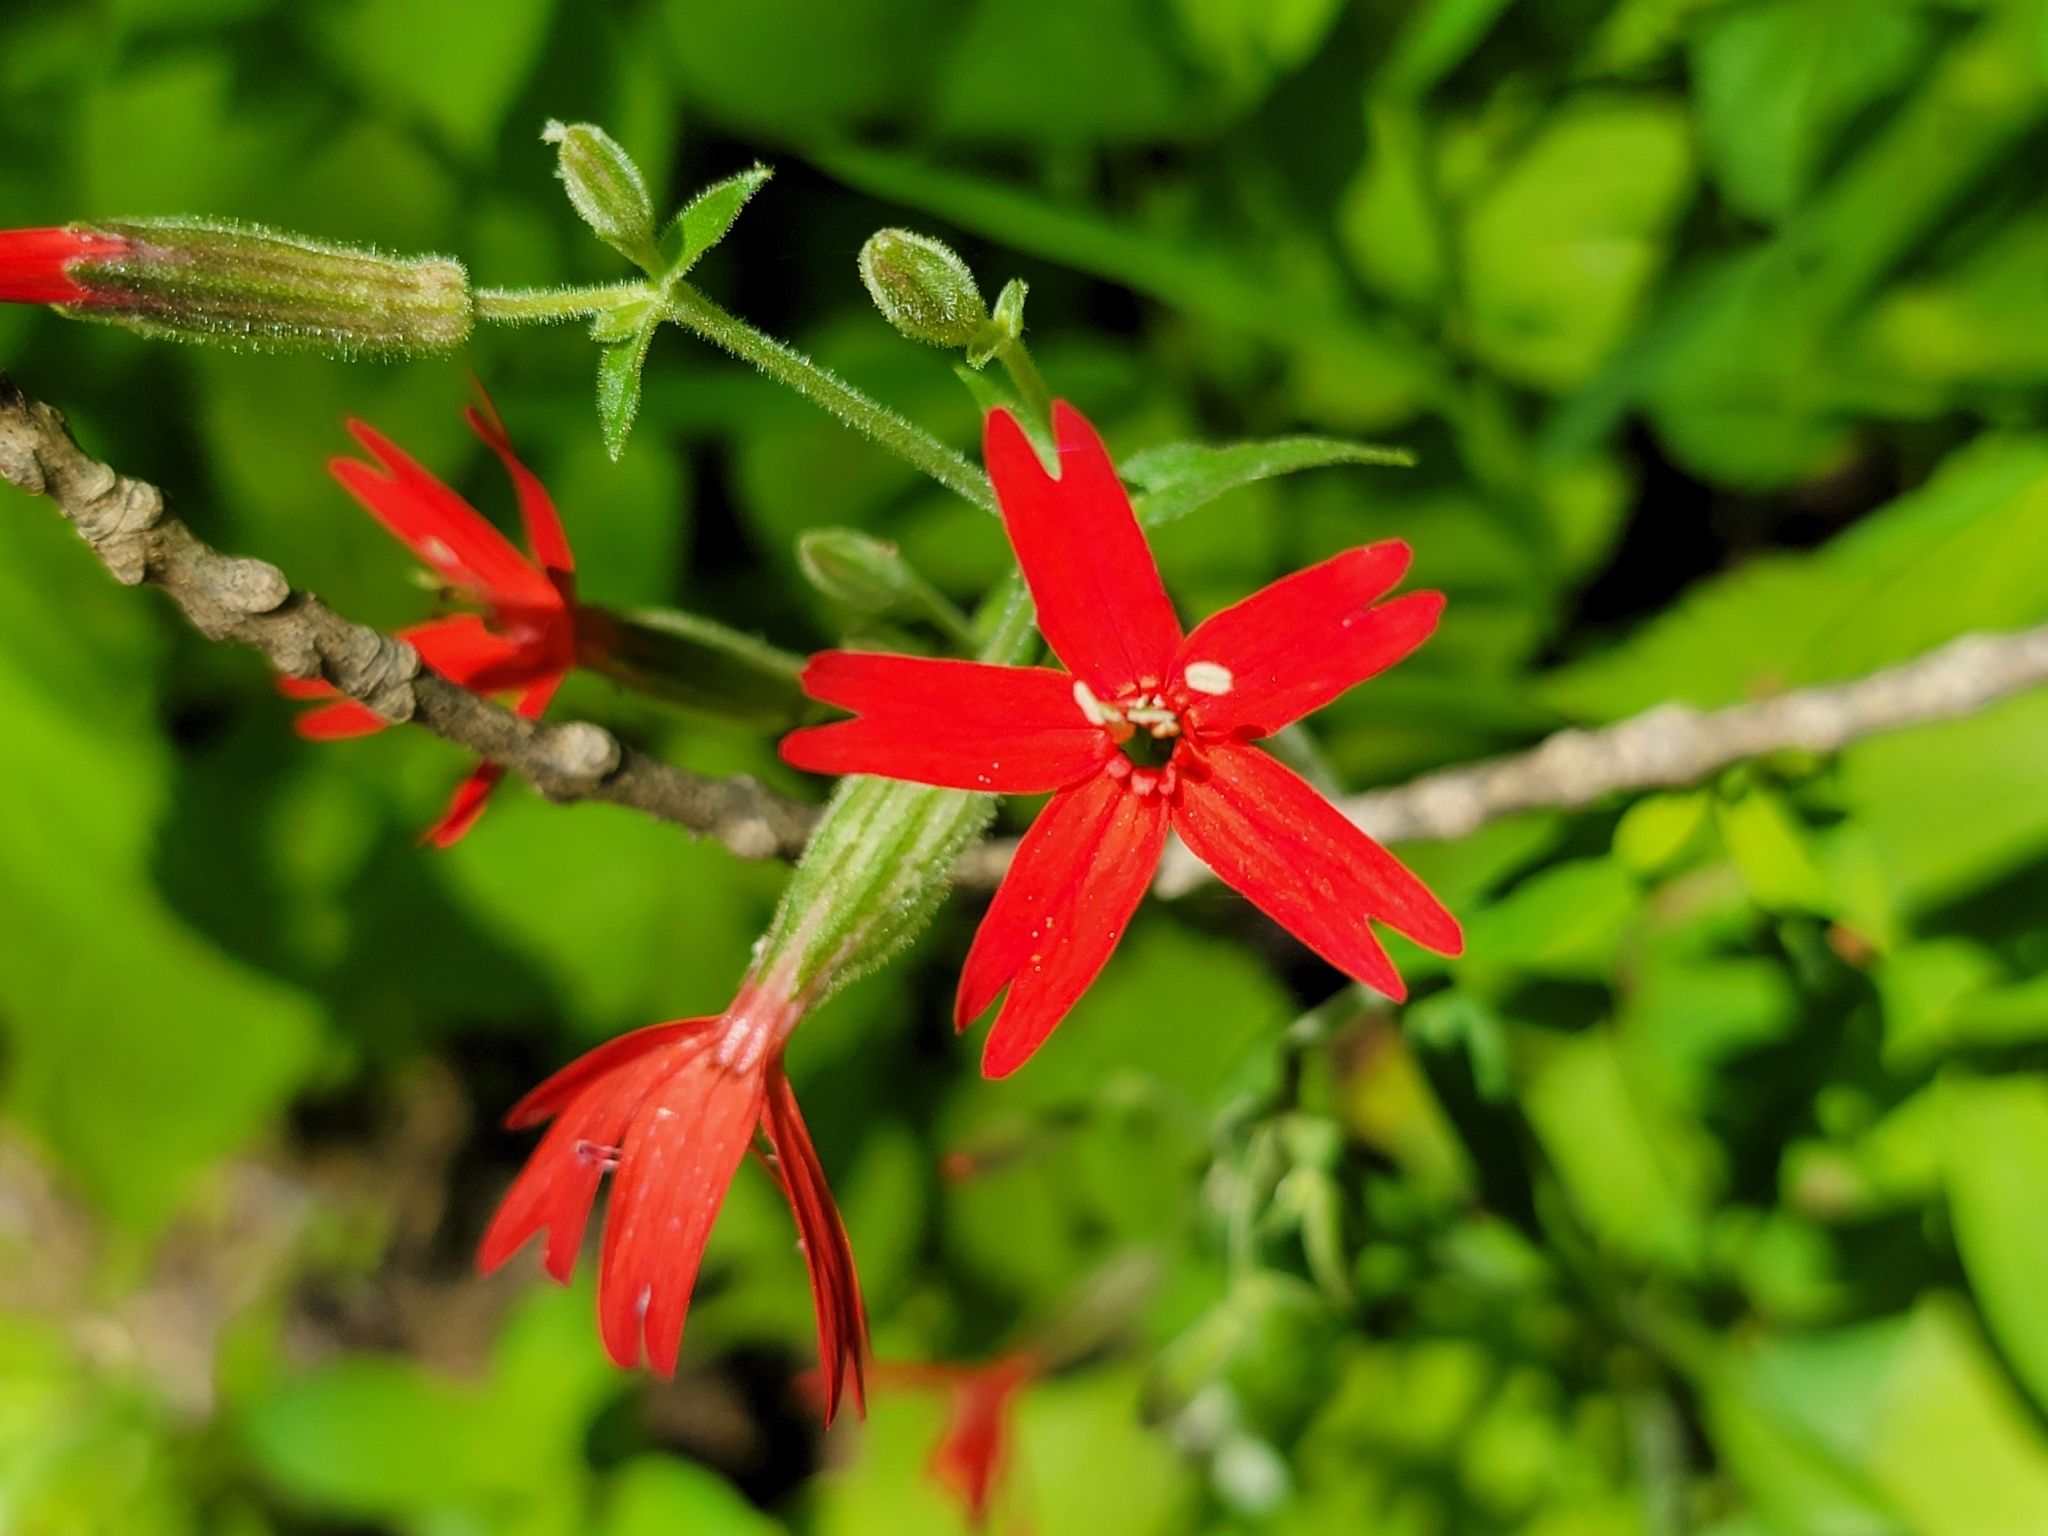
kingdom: Plantae
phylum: Tracheophyta
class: Magnoliopsida
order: Caryophyllales
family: Caryophyllaceae
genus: Silene
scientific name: Silene virginica
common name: Fire-pink
